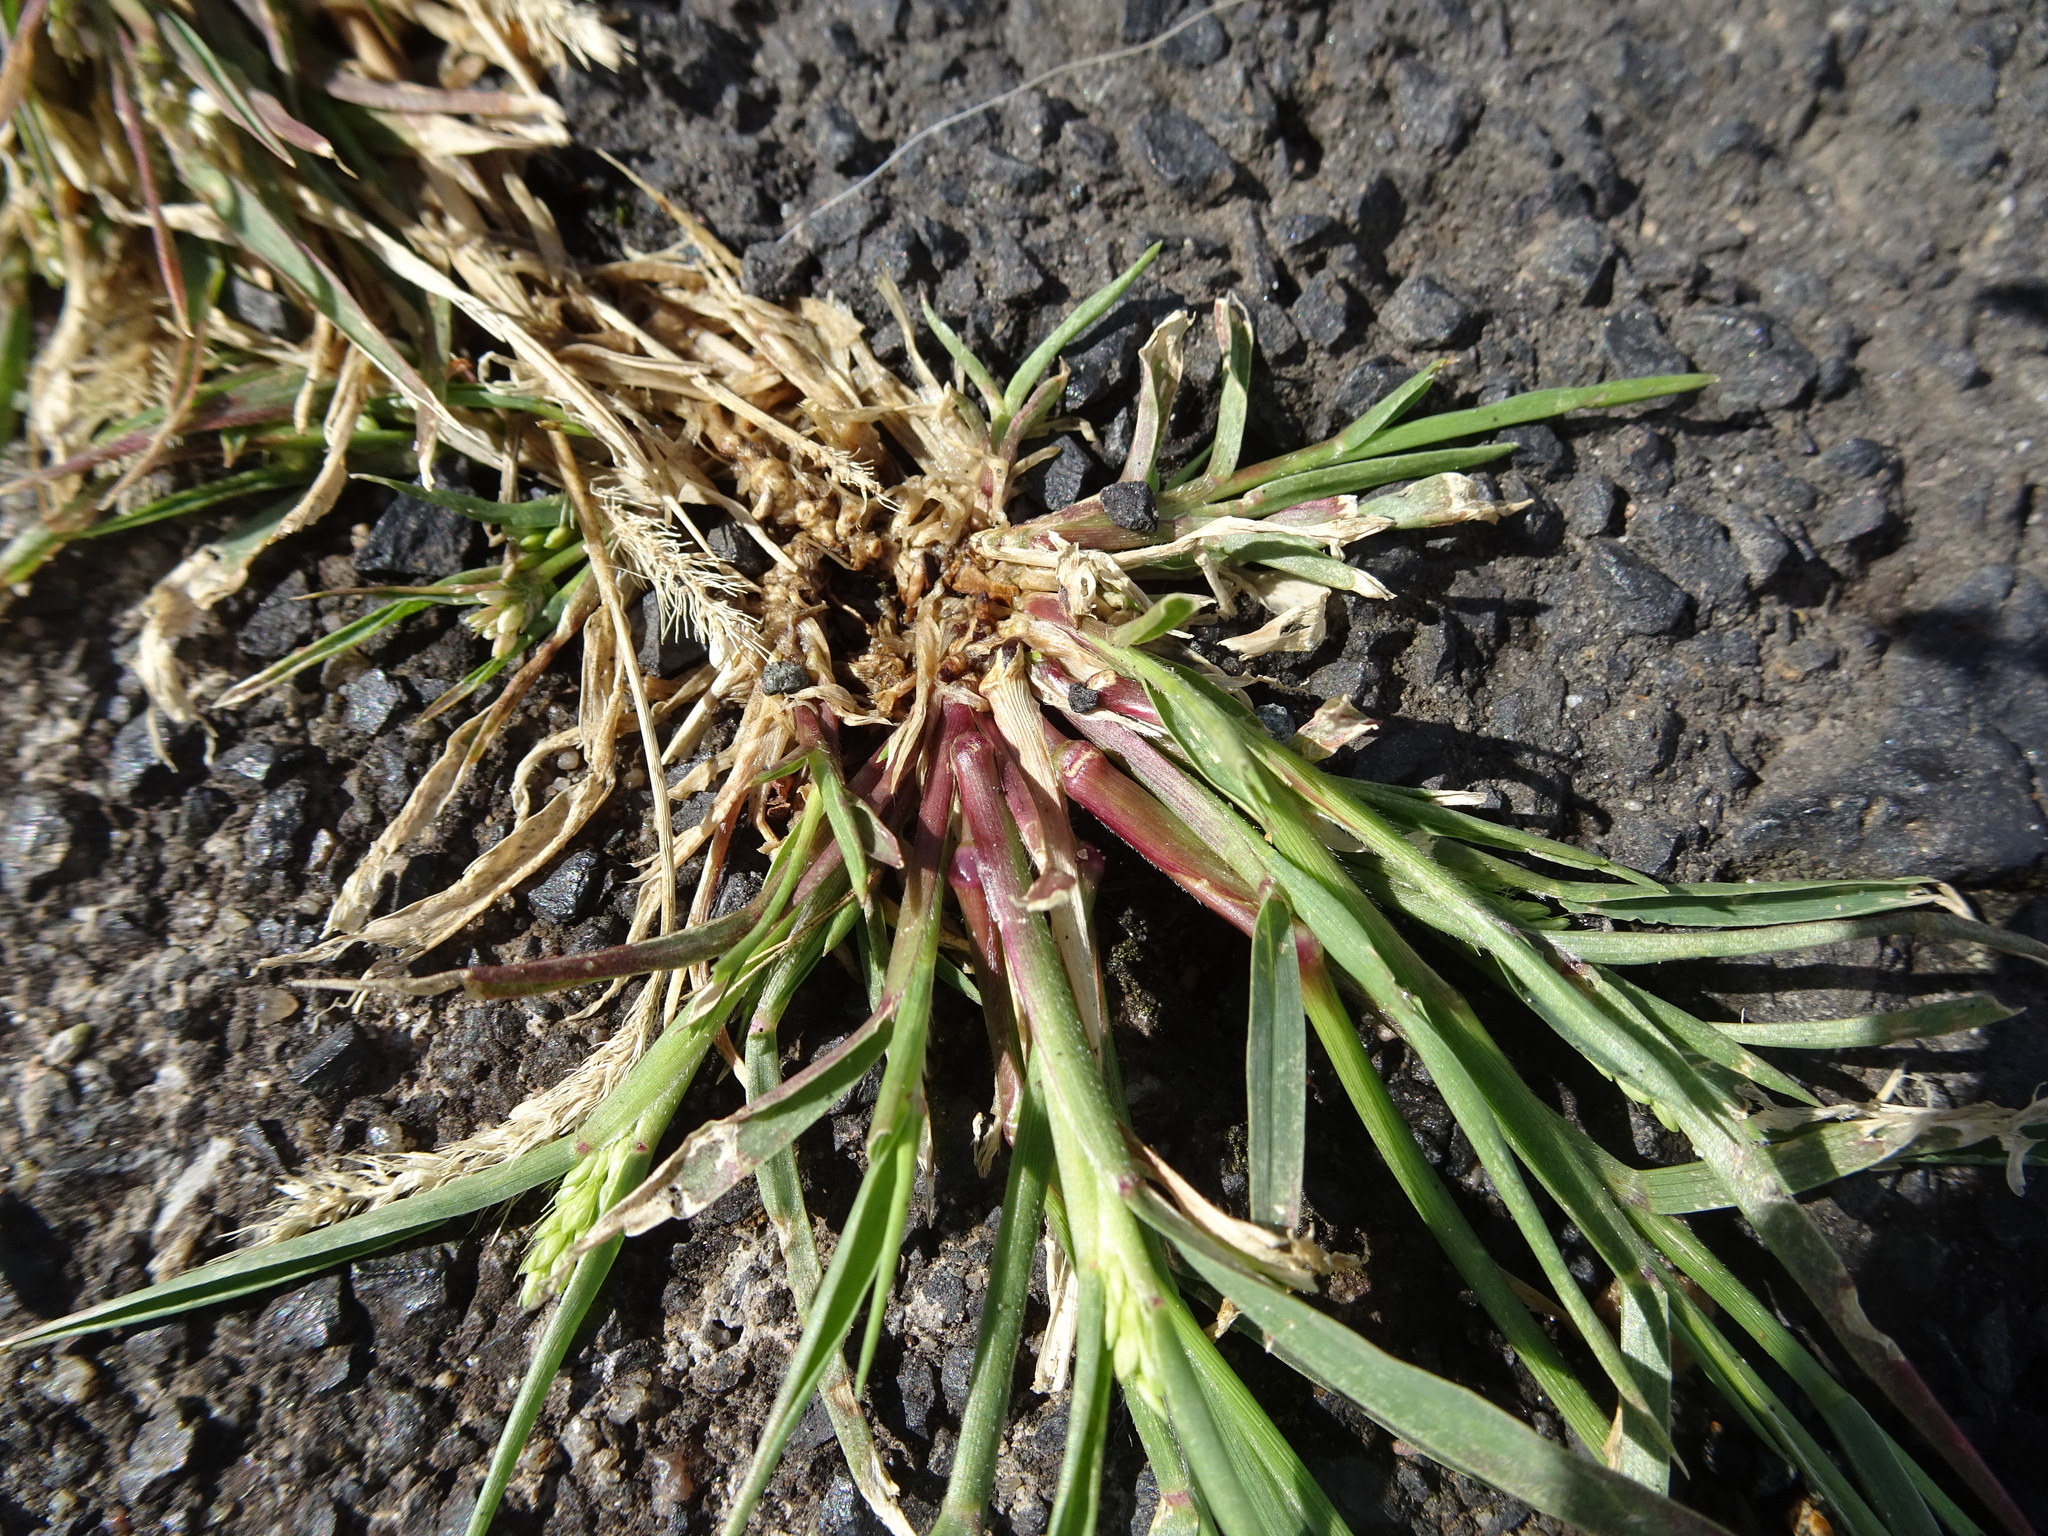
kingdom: Plantae
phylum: Tracheophyta
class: Liliopsida
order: Poales
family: Poaceae
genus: Setaria
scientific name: Setaria viridis
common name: Green bristlegrass
